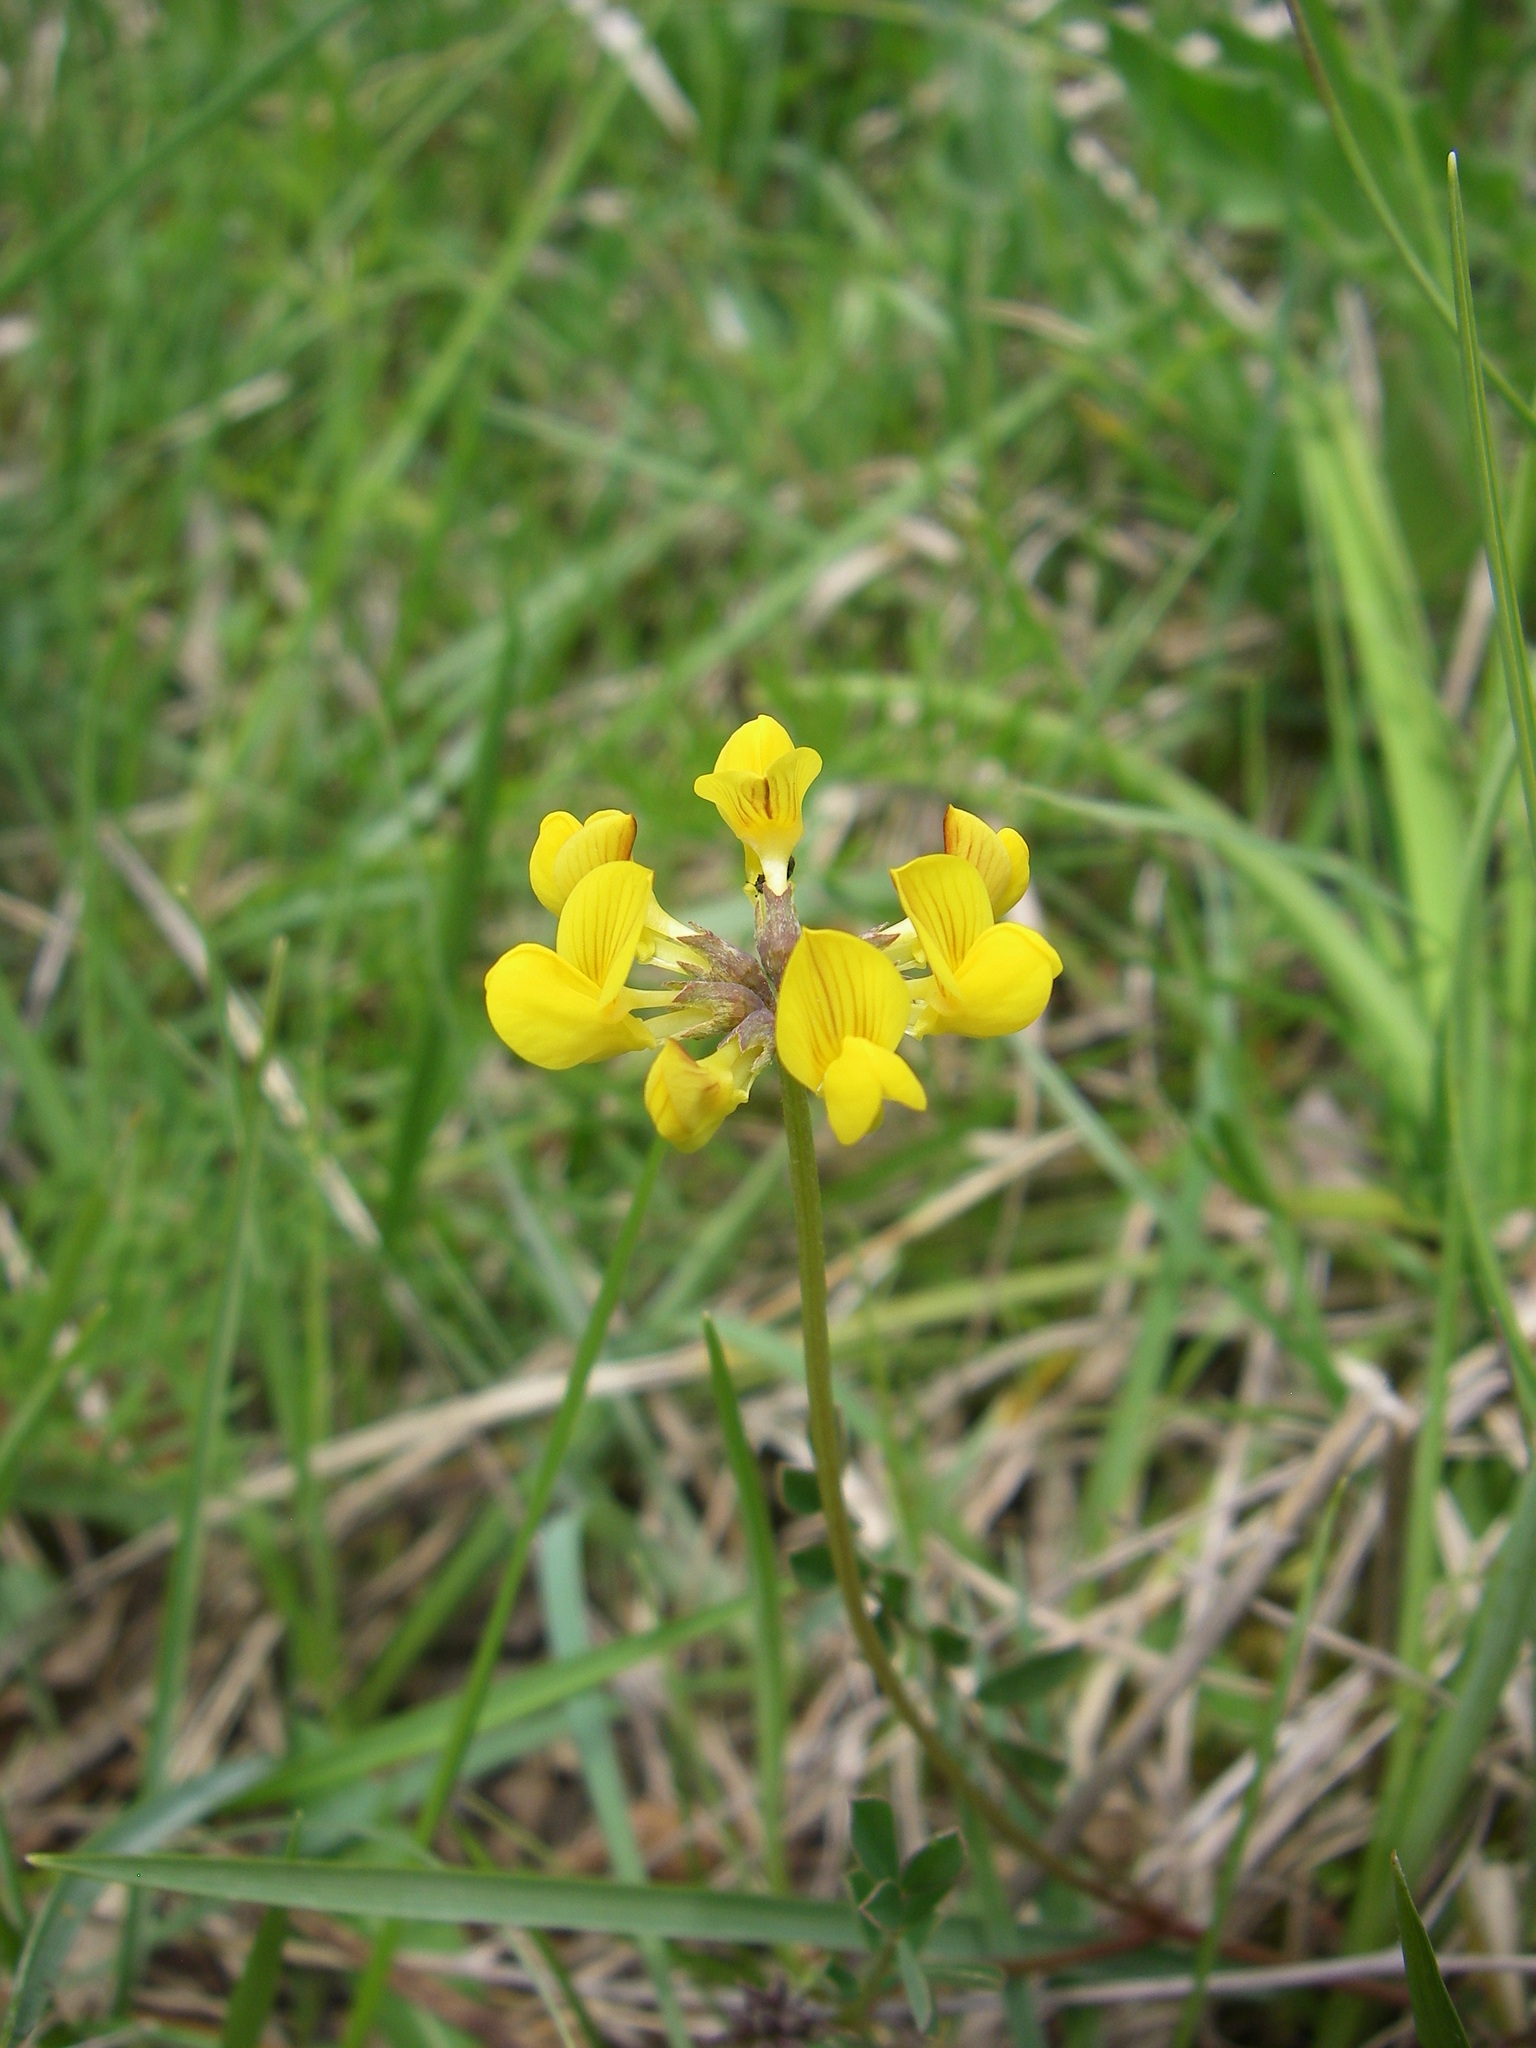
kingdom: Plantae
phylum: Tracheophyta
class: Magnoliopsida
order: Fabales
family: Fabaceae
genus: Hippocrepis
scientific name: Hippocrepis comosa
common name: Horseshoe vetch
